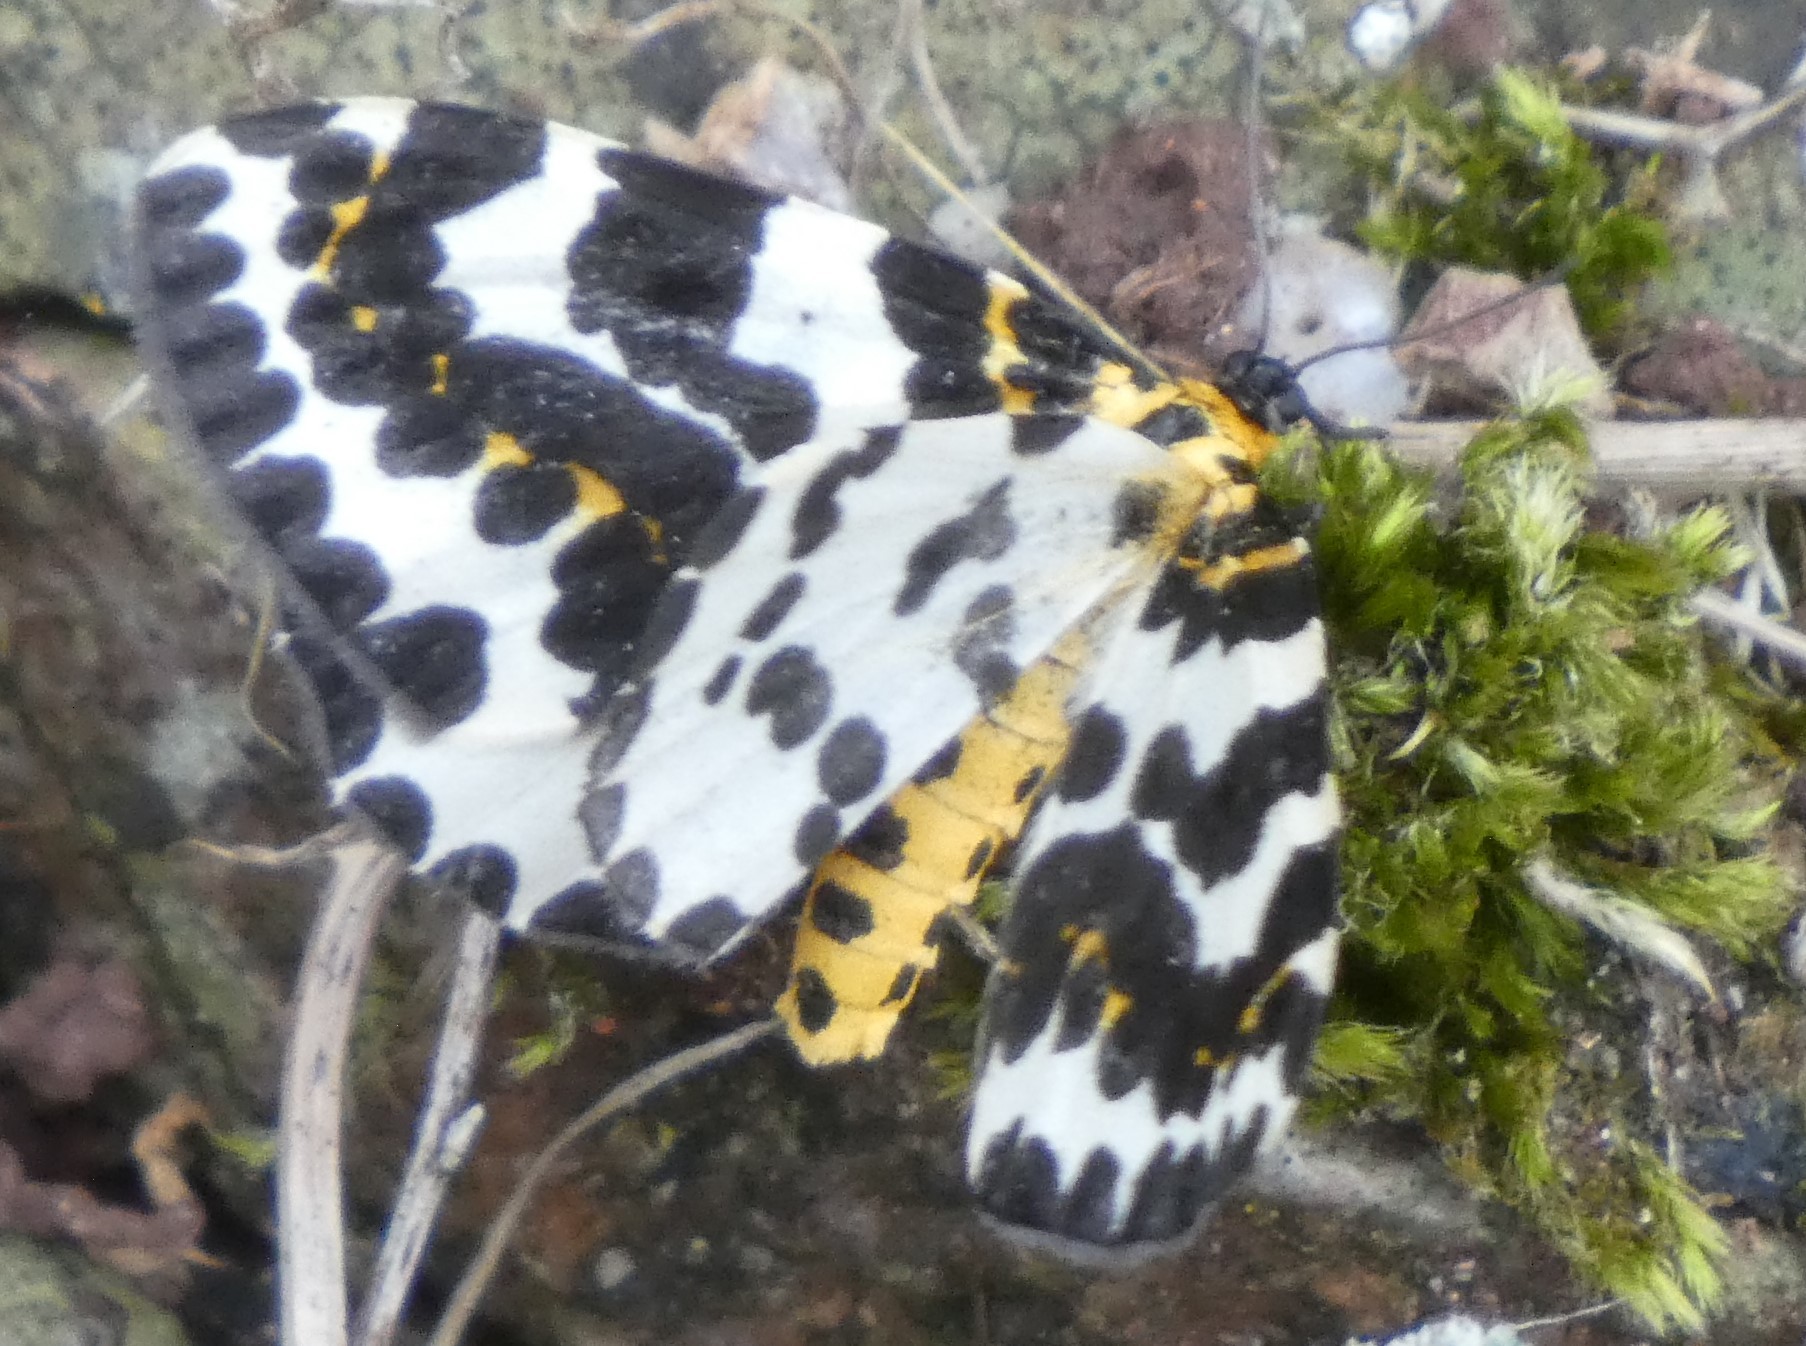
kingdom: Animalia
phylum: Arthropoda
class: Insecta
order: Lepidoptera
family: Geometridae
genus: Abraxas
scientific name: Abraxas grossulariata
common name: Magpie
